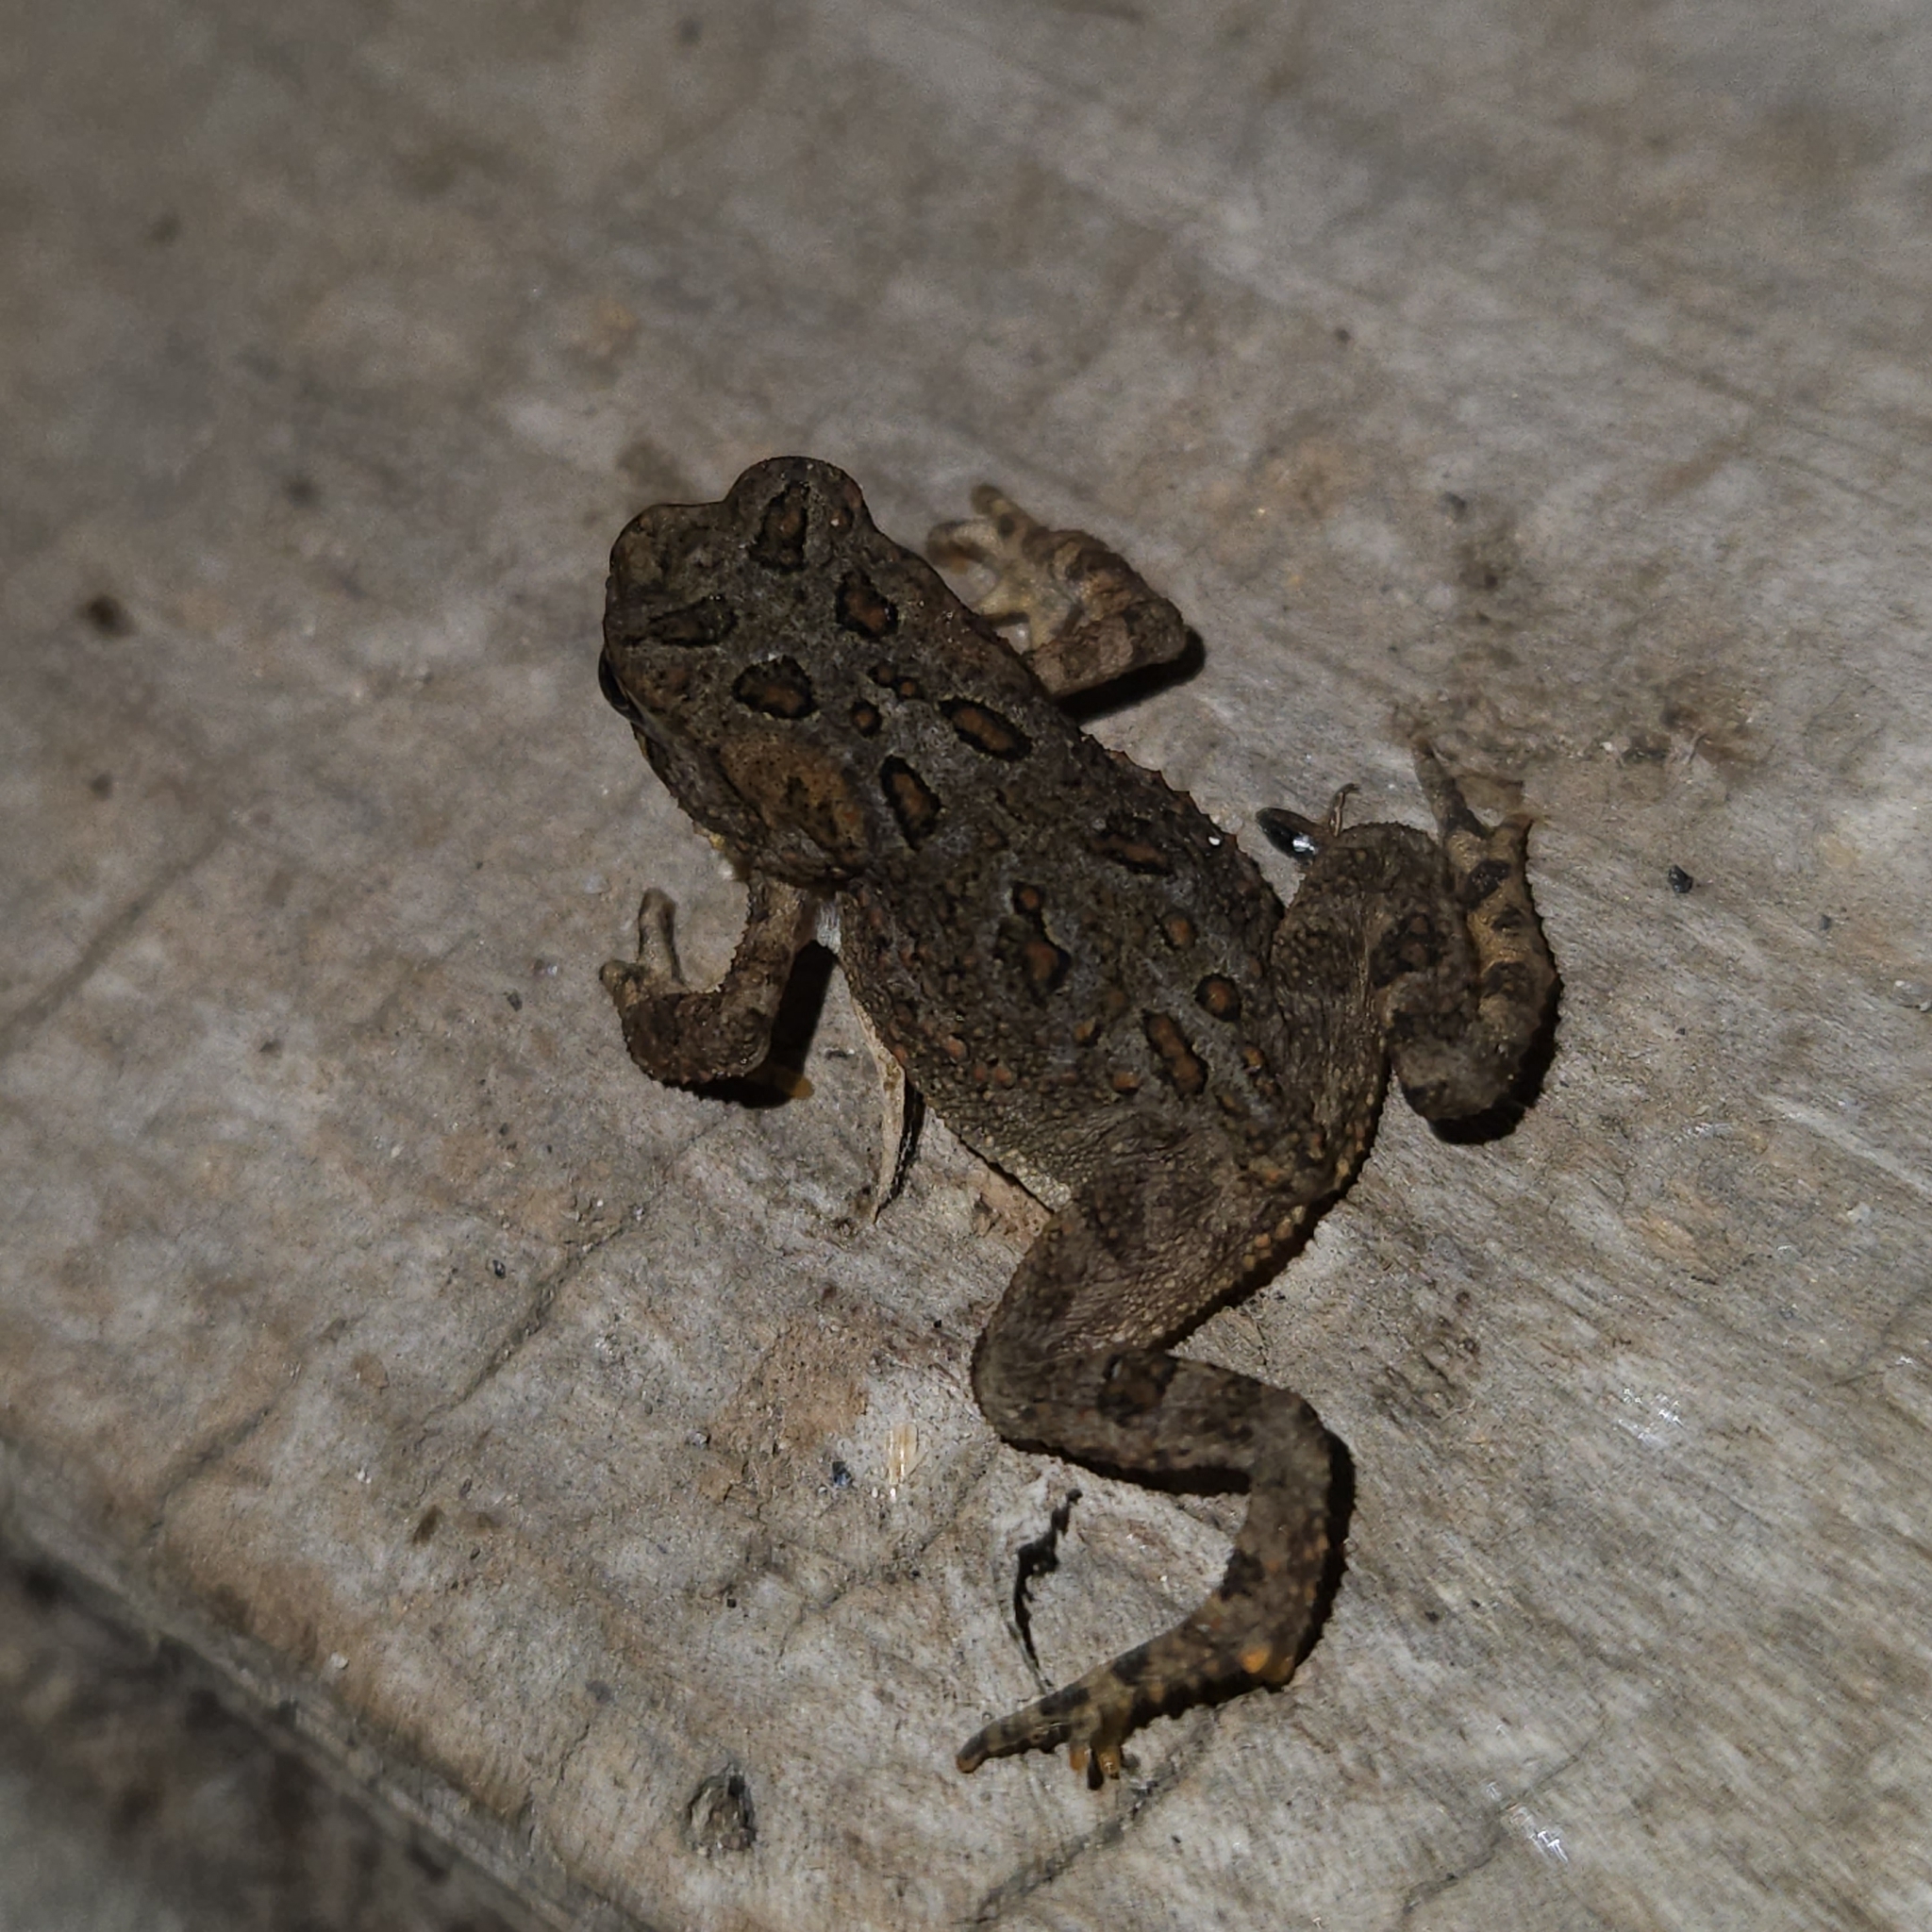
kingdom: Animalia
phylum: Chordata
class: Amphibia
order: Anura
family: Bufonidae
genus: Anaxyrus
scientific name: Anaxyrus americanus
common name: American toad
